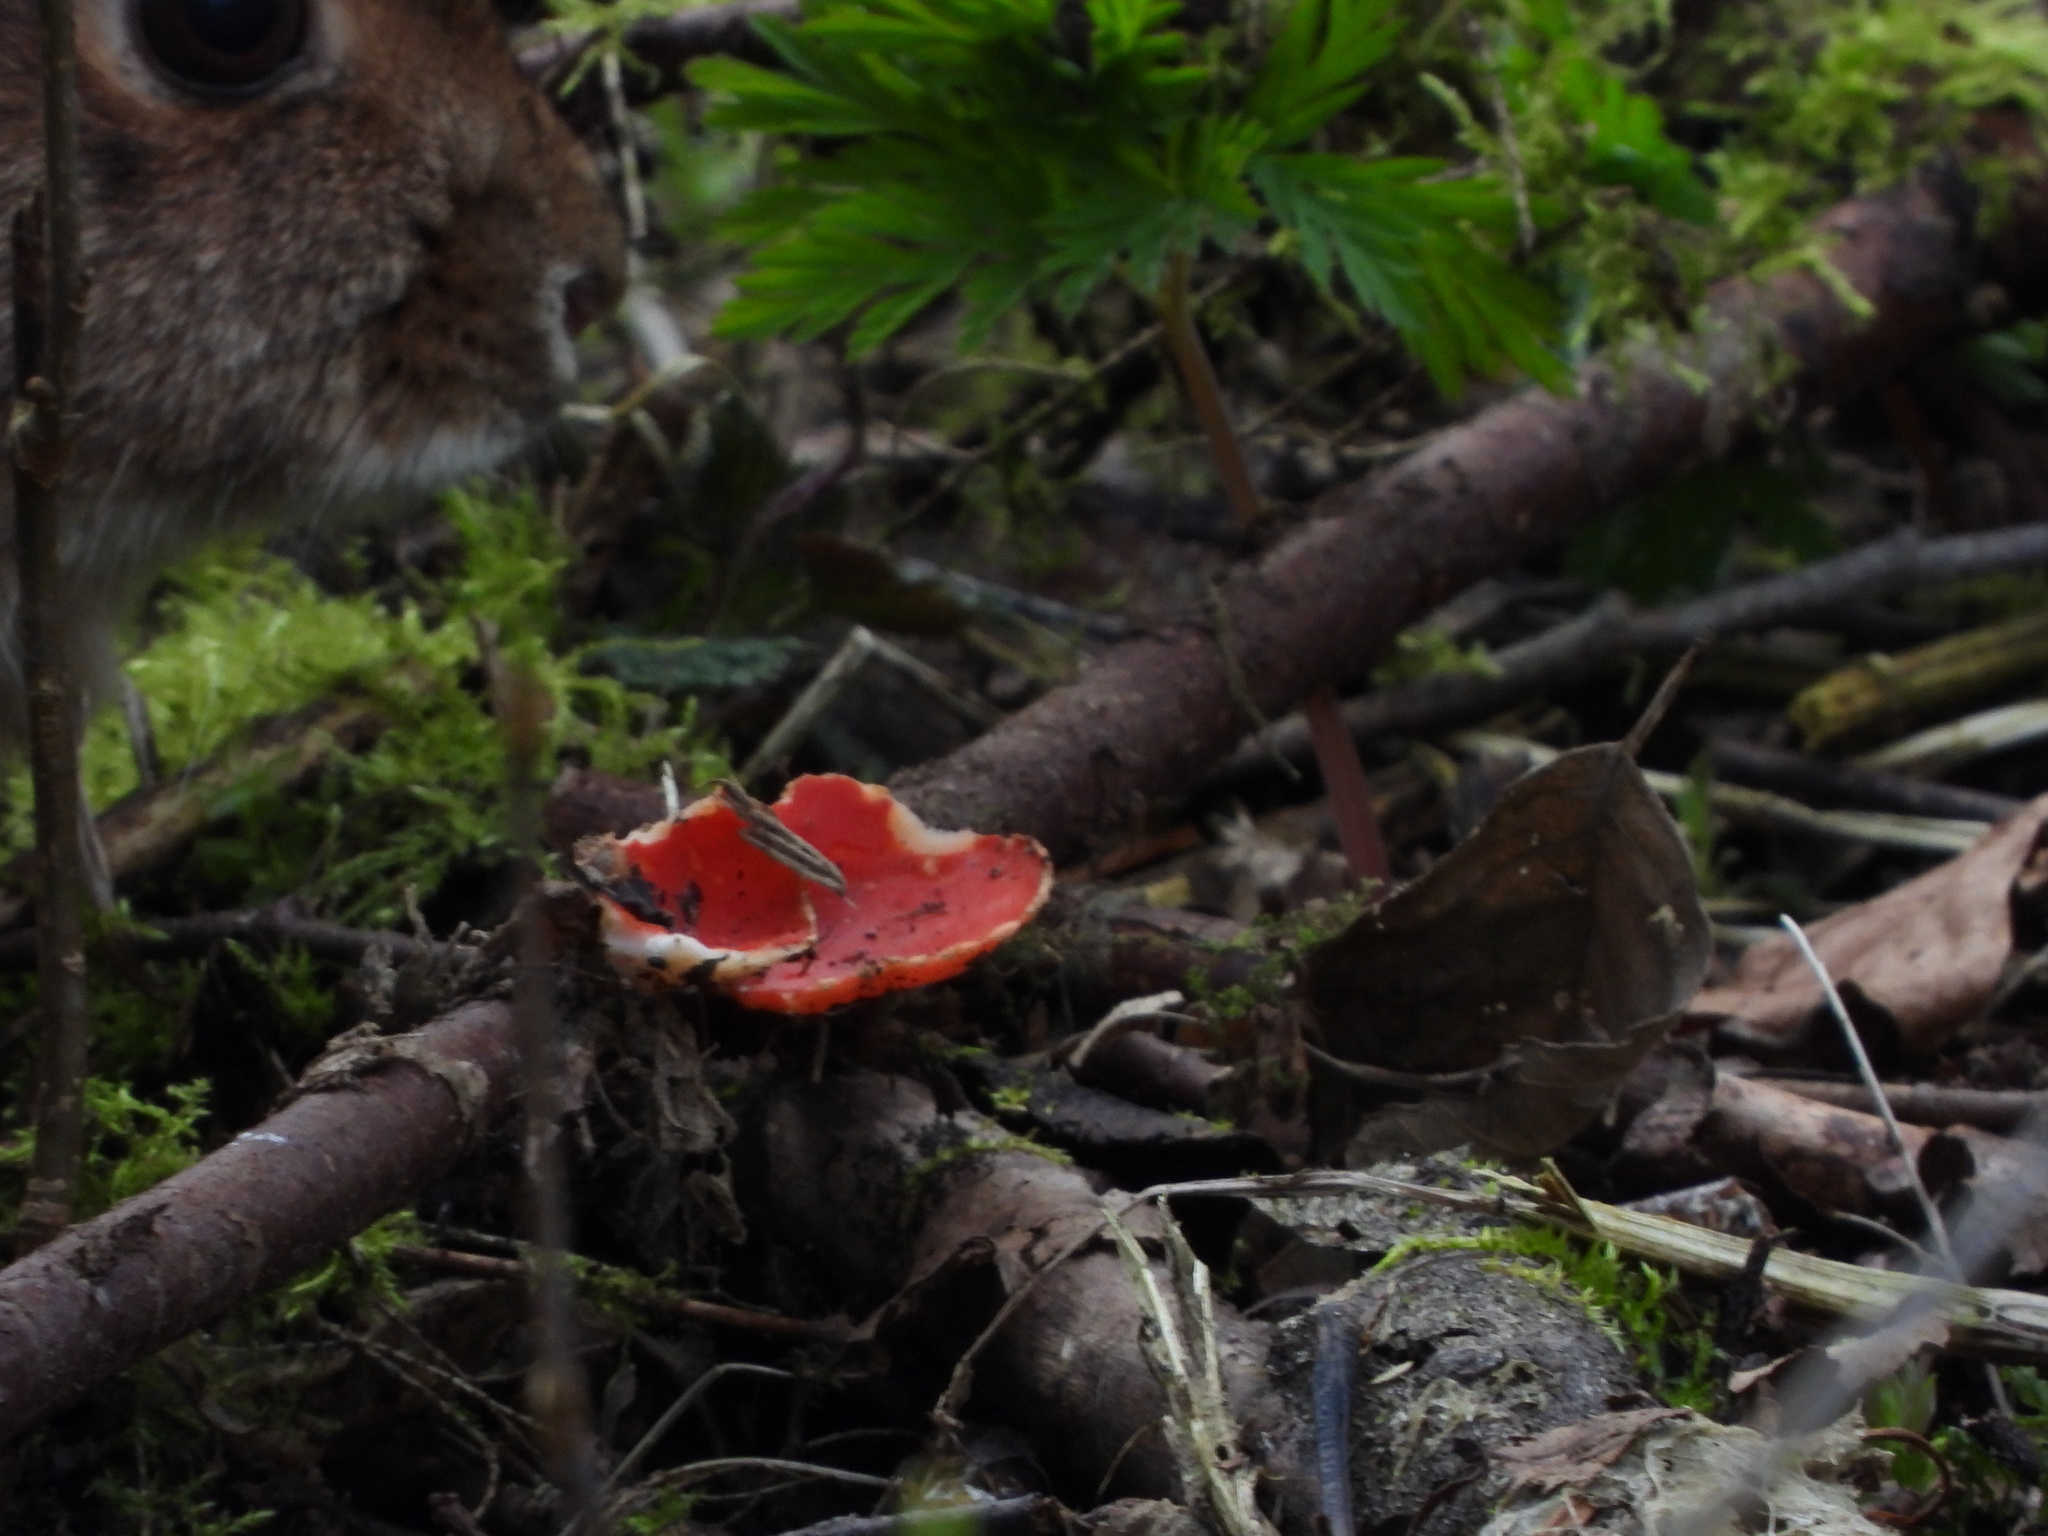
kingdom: Fungi
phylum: Ascomycota
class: Pezizomycetes
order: Pezizales
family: Sarcoscyphaceae
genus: Sarcoscypha
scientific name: Sarcoscypha coccinea
